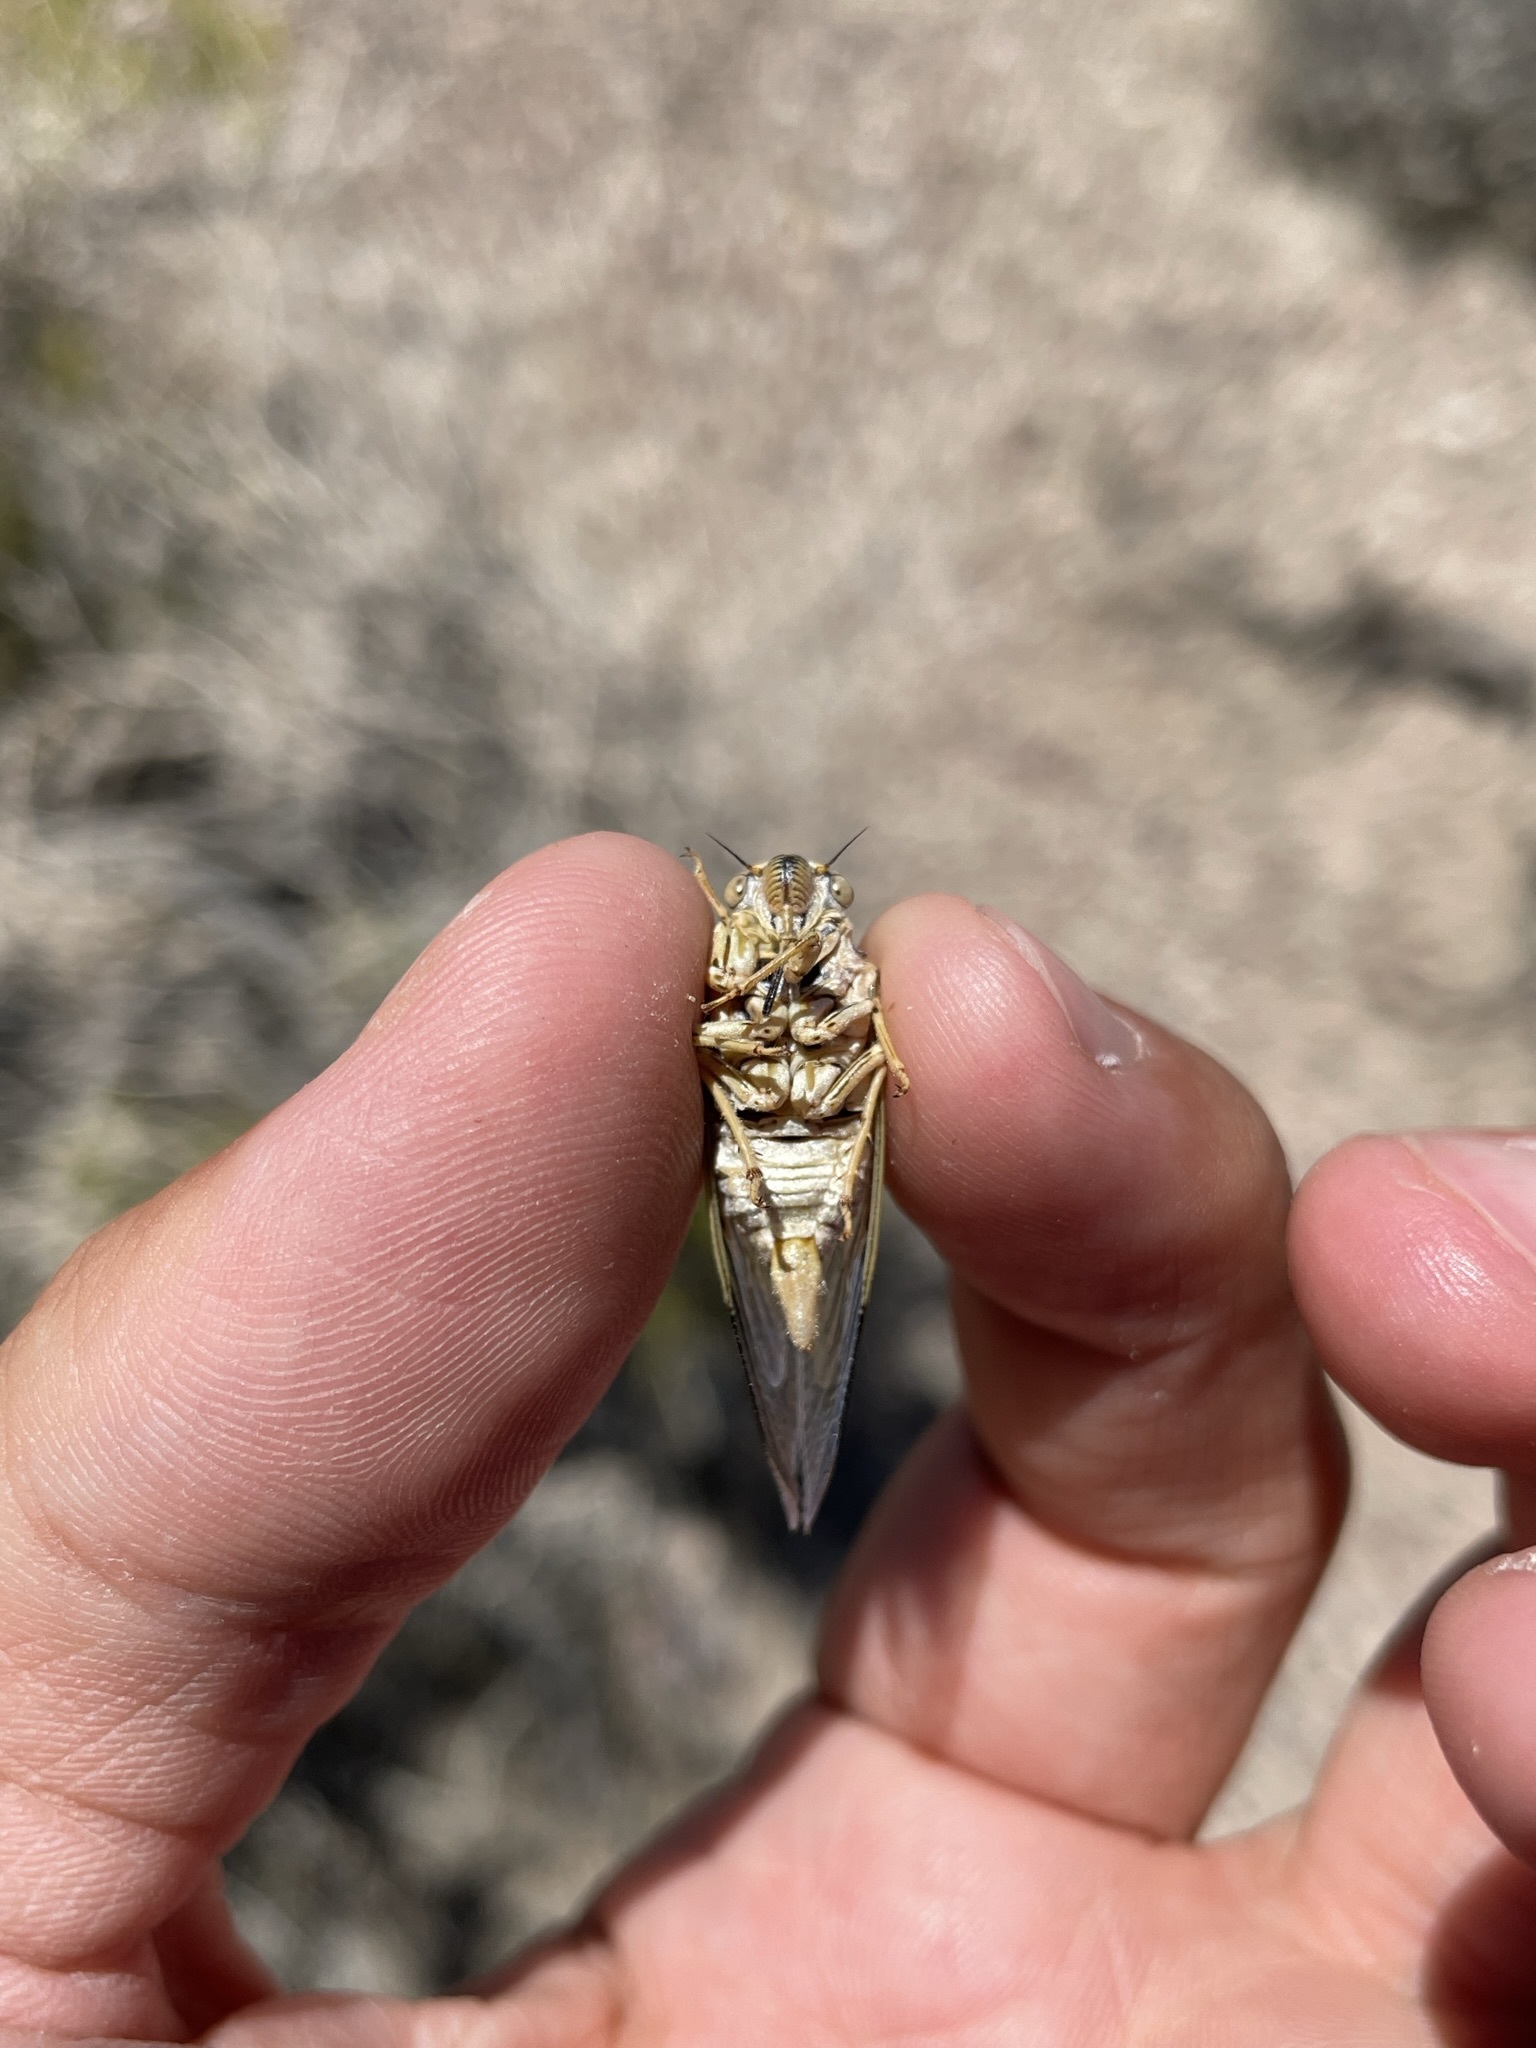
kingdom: Animalia
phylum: Arthropoda
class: Insecta
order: Hemiptera
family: Cicadidae
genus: Okanagodes
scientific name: Okanagodes gracilis
